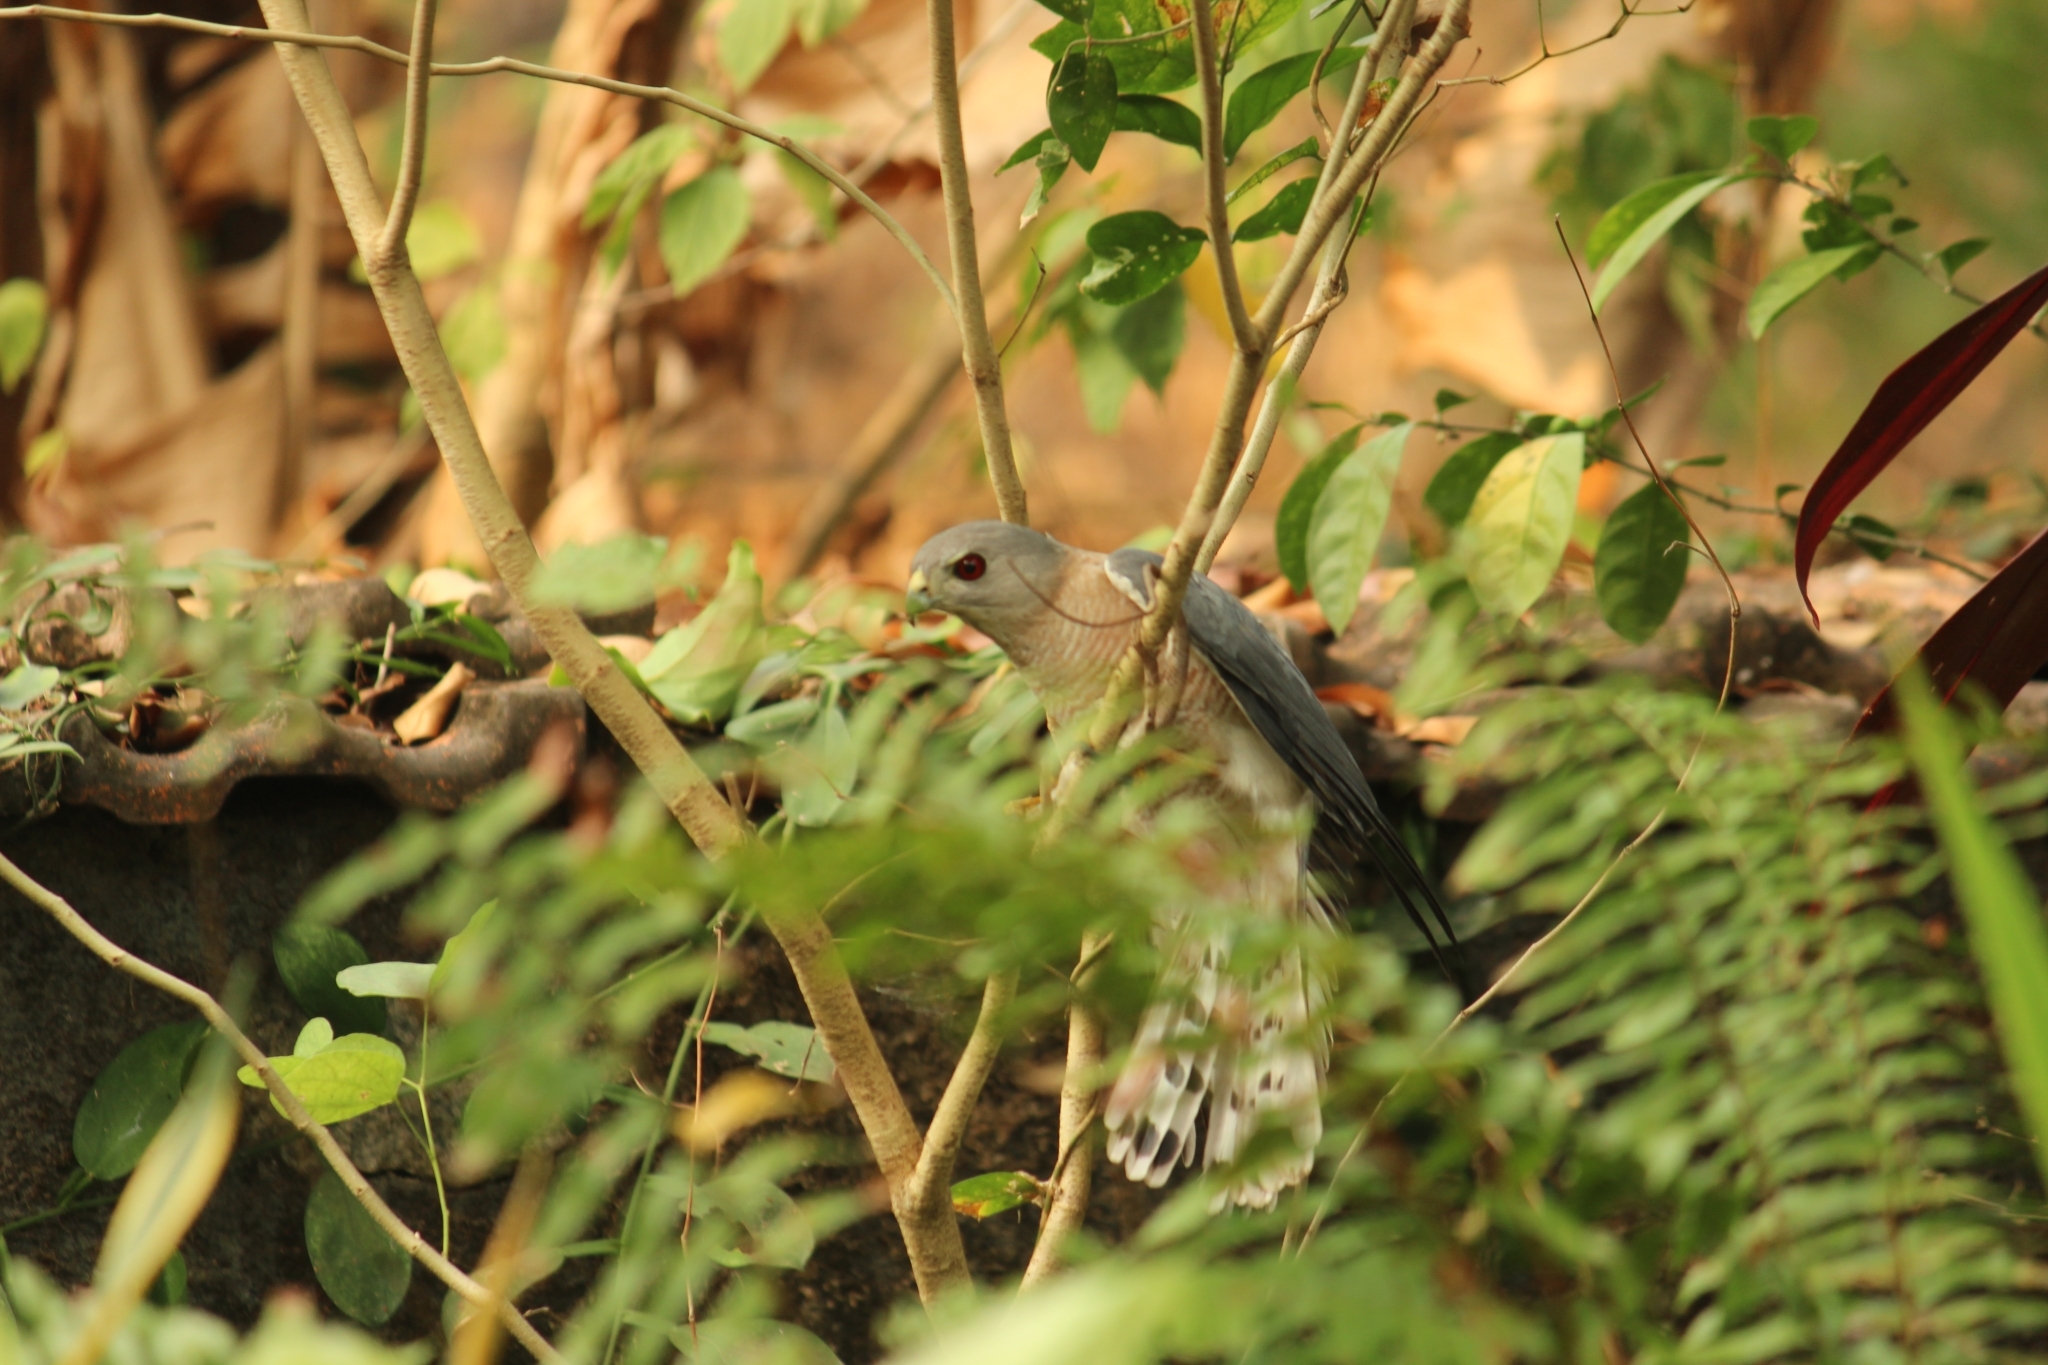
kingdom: Animalia
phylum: Chordata
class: Aves
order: Accipitriformes
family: Accipitridae
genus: Accipiter
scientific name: Accipiter badius
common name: Shikra
